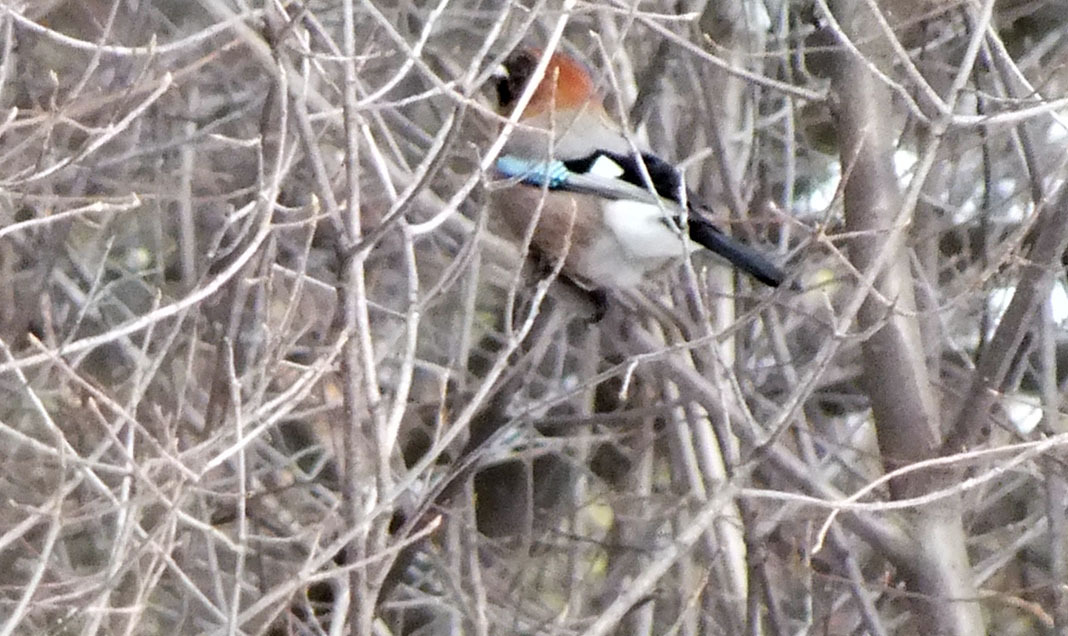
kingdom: Animalia
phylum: Chordata
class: Aves
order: Passeriformes
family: Corvidae
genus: Garrulus
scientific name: Garrulus glandarius
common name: Eurasian jay
